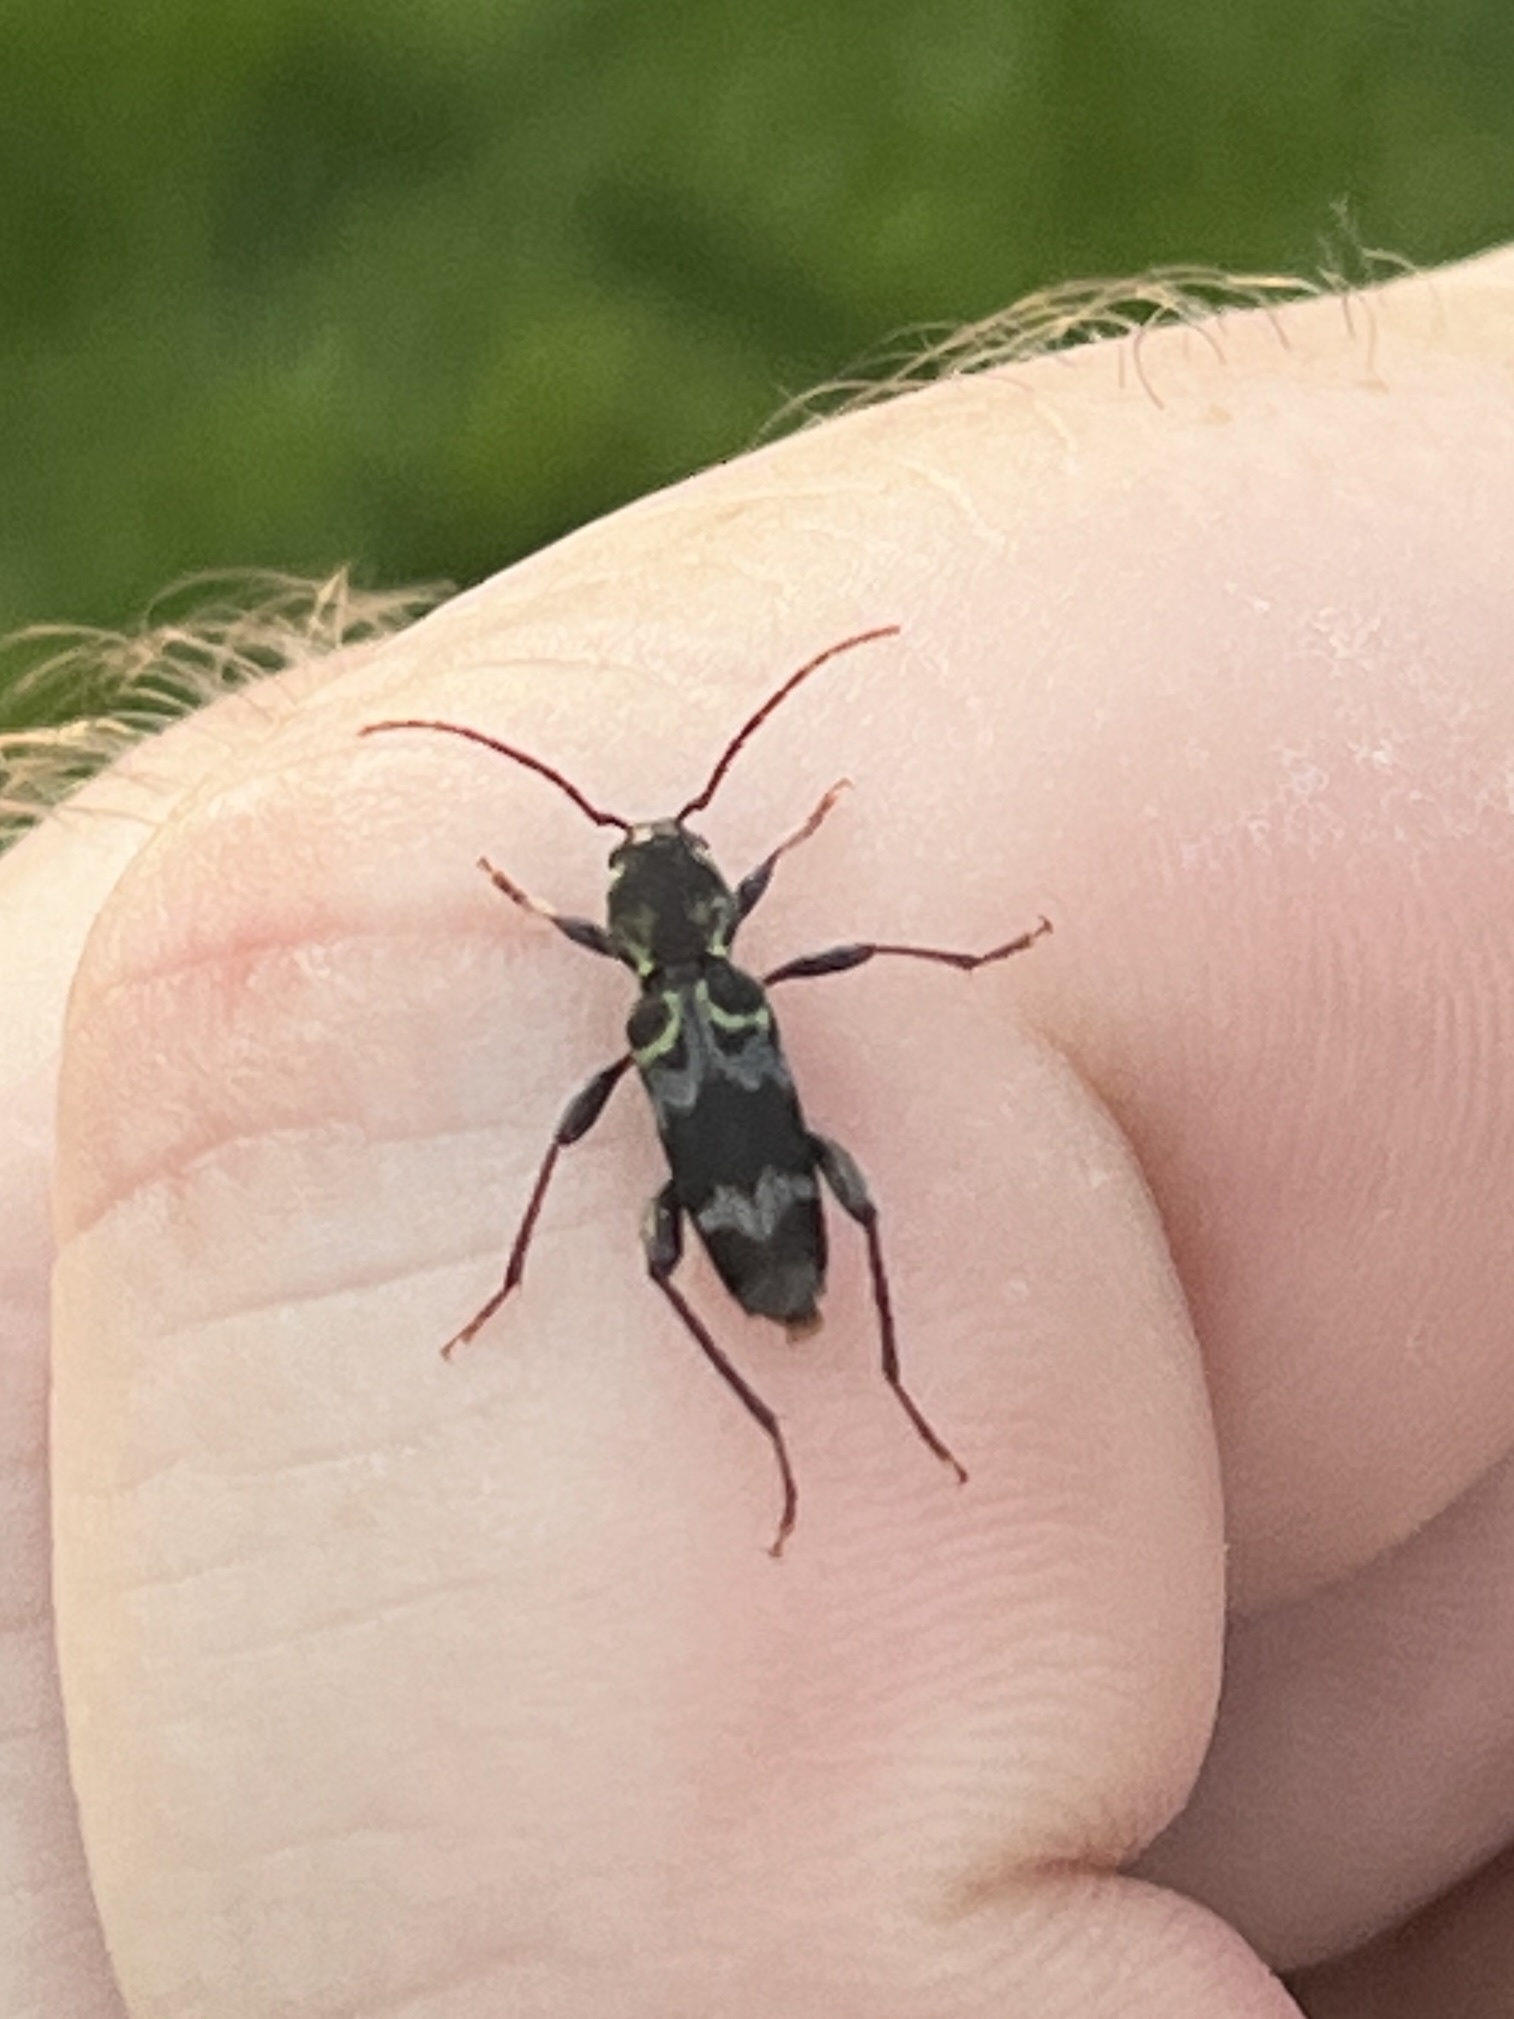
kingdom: Animalia
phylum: Arthropoda
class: Insecta
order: Coleoptera
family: Cerambycidae
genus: Xylotrechus
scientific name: Xylotrechus colonus
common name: Long-horned beetle
